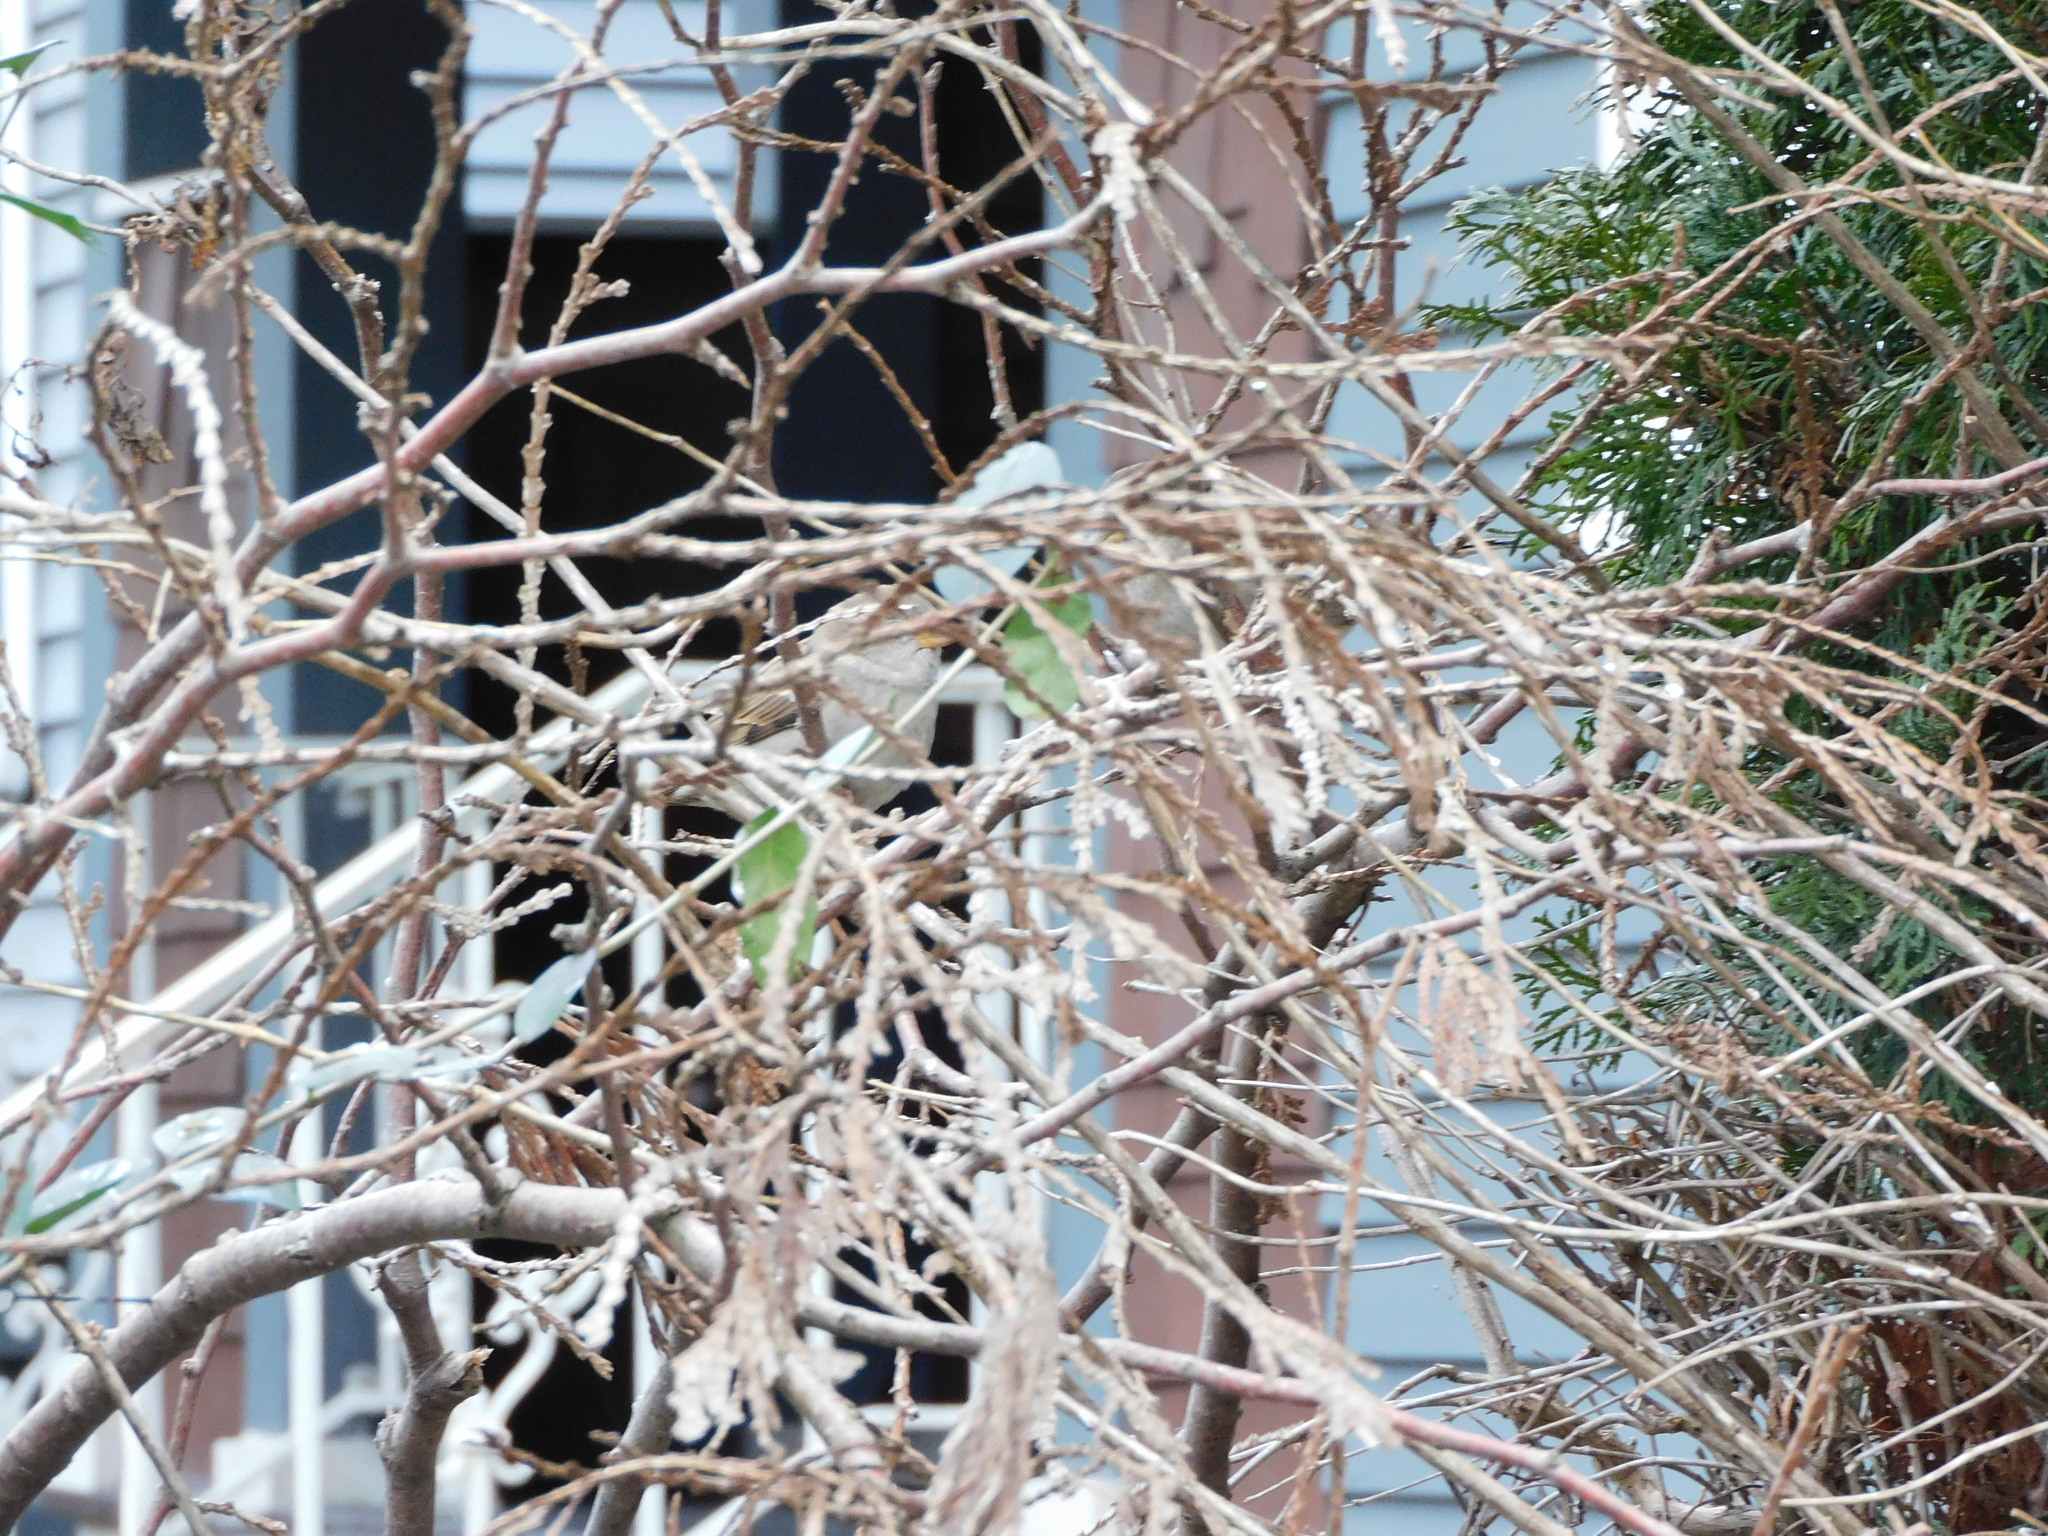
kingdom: Animalia
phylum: Chordata
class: Aves
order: Passeriformes
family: Passeridae
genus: Passer
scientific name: Passer domesticus
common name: House sparrow
